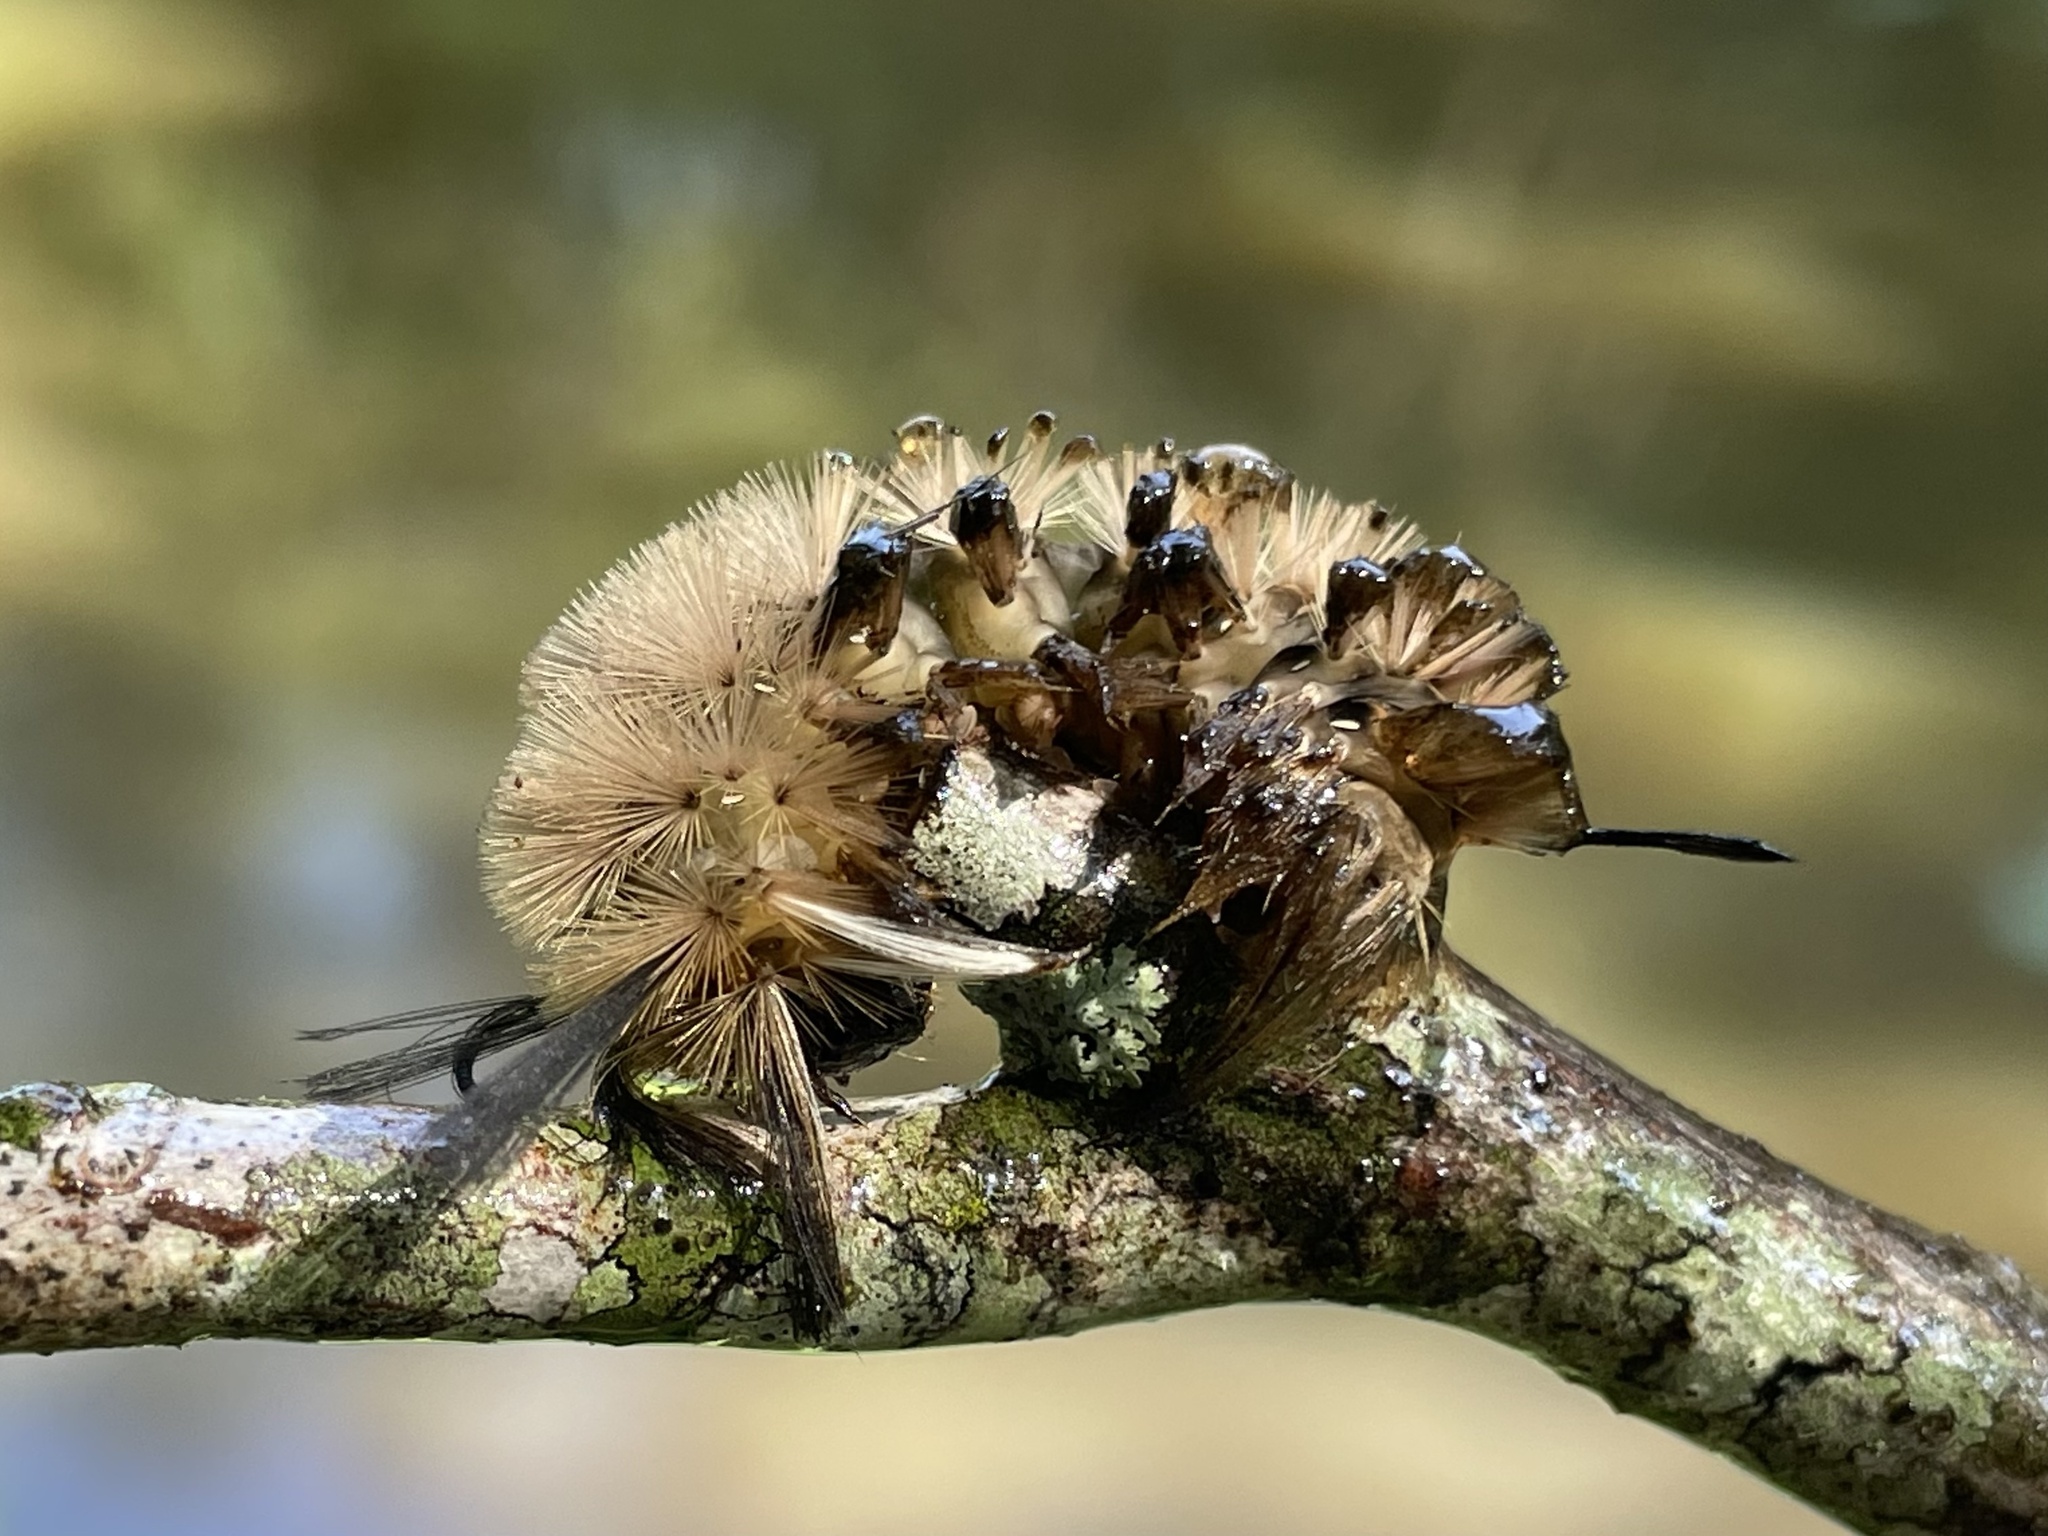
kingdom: Animalia
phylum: Arthropoda
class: Insecta
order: Lepidoptera
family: Erebidae
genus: Halysidota
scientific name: Halysidota tessellaris
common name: Banded tussock moth
